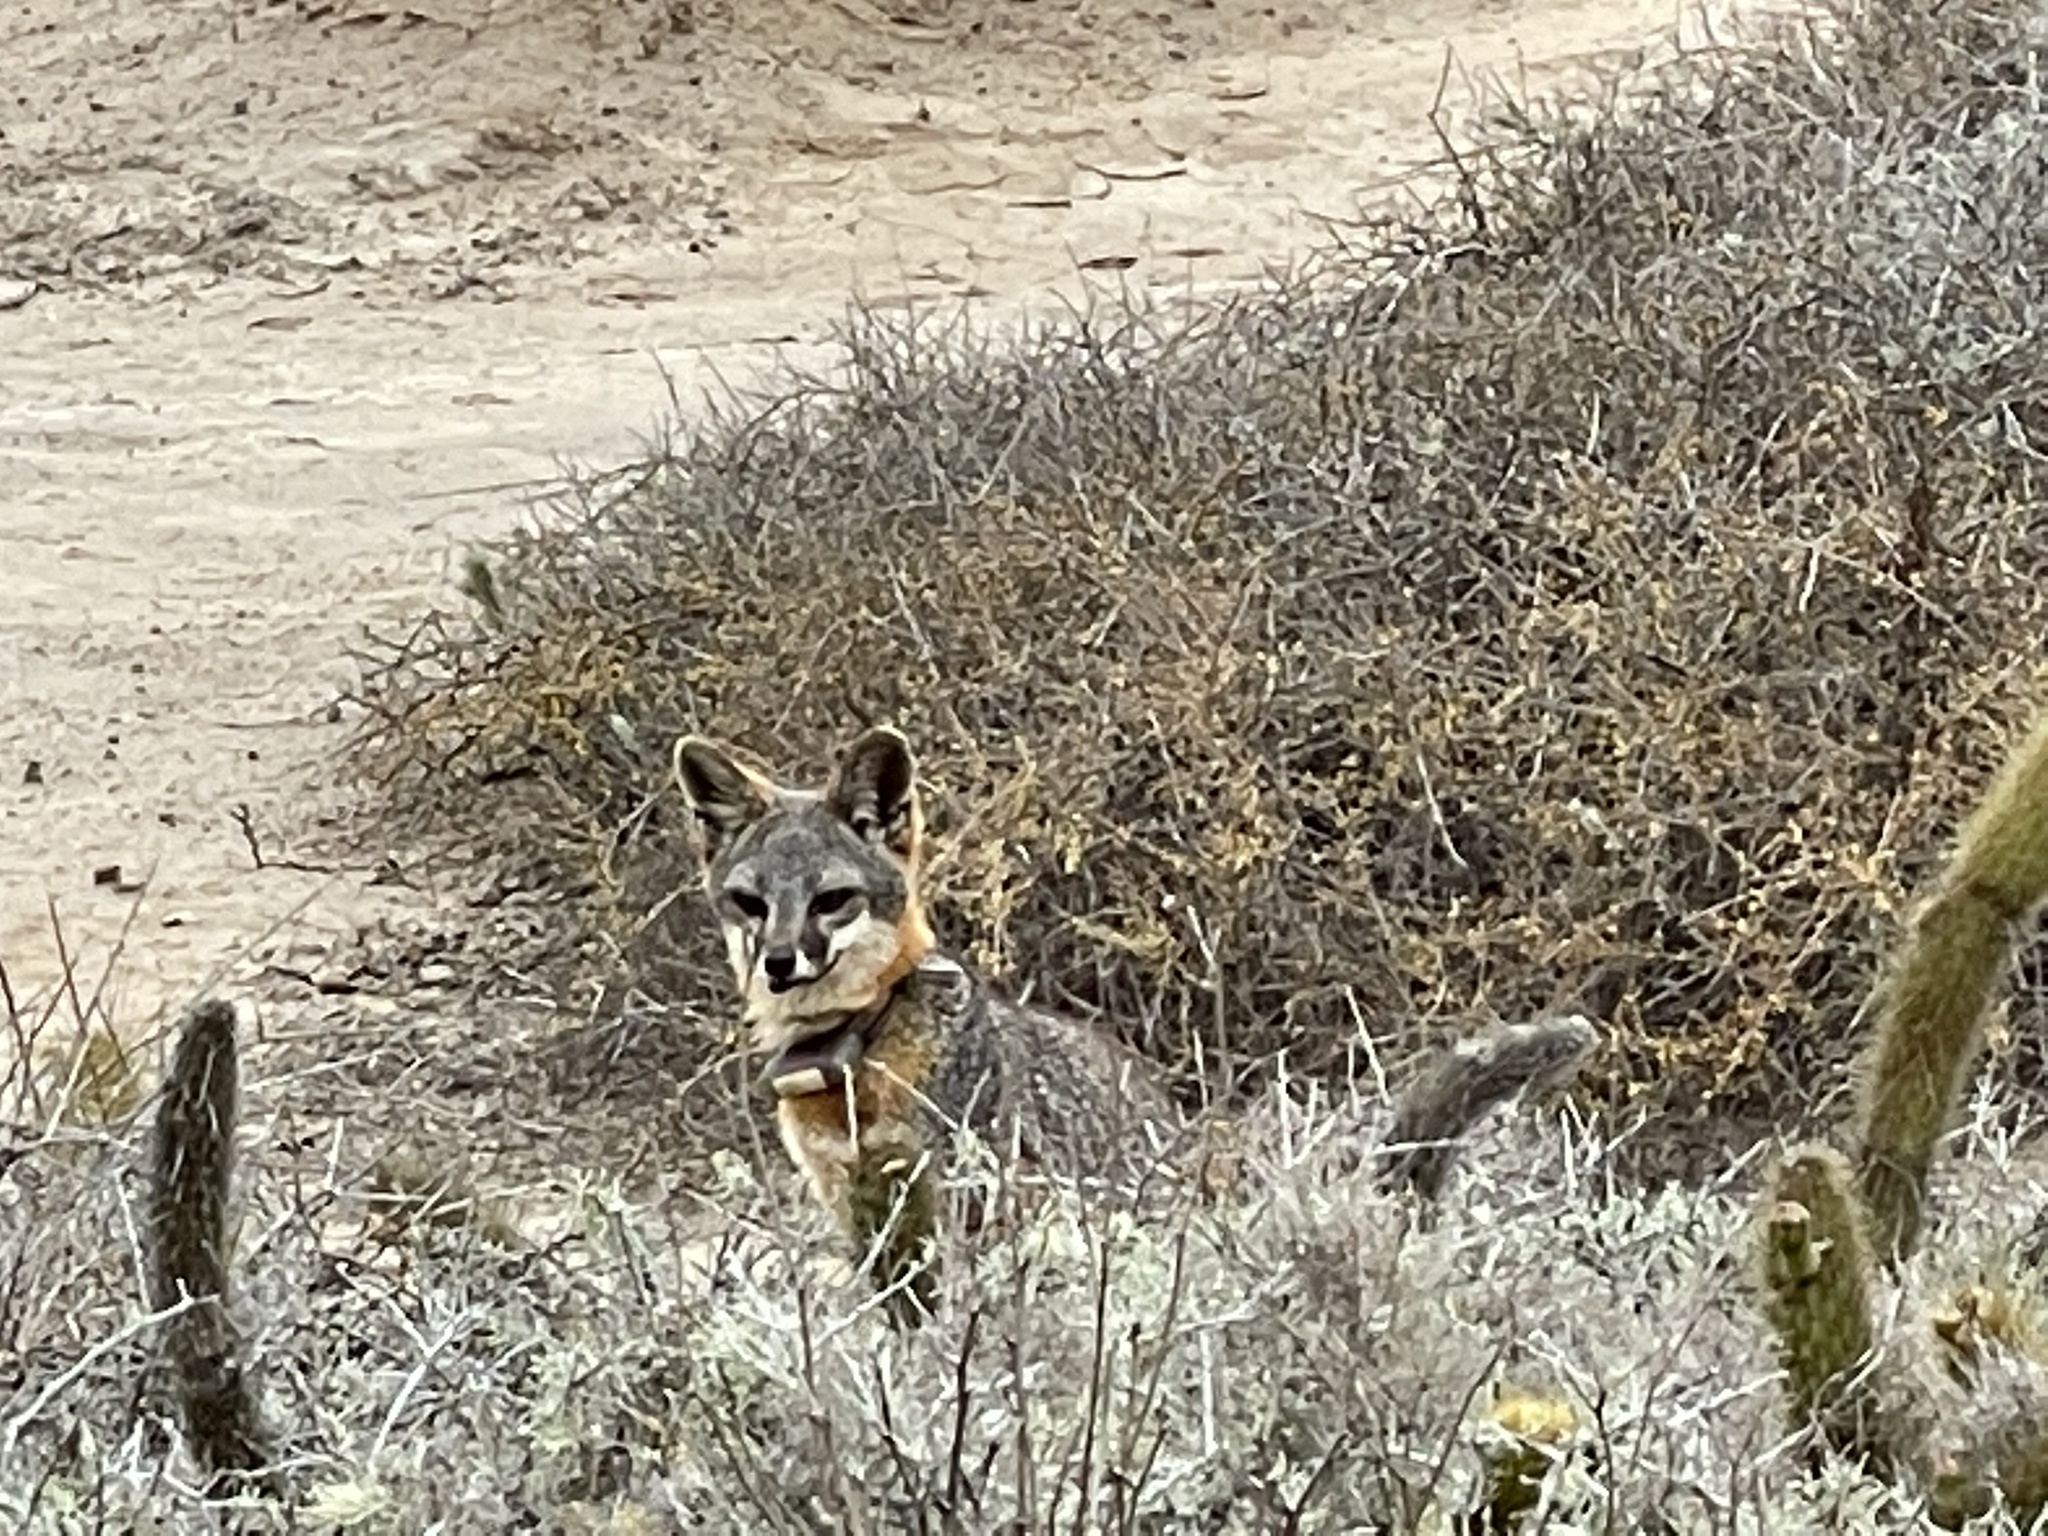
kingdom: Animalia
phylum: Chordata
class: Mammalia
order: Carnivora
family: Canidae
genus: Urocyon
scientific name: Urocyon littoralis
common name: Island gray fox
